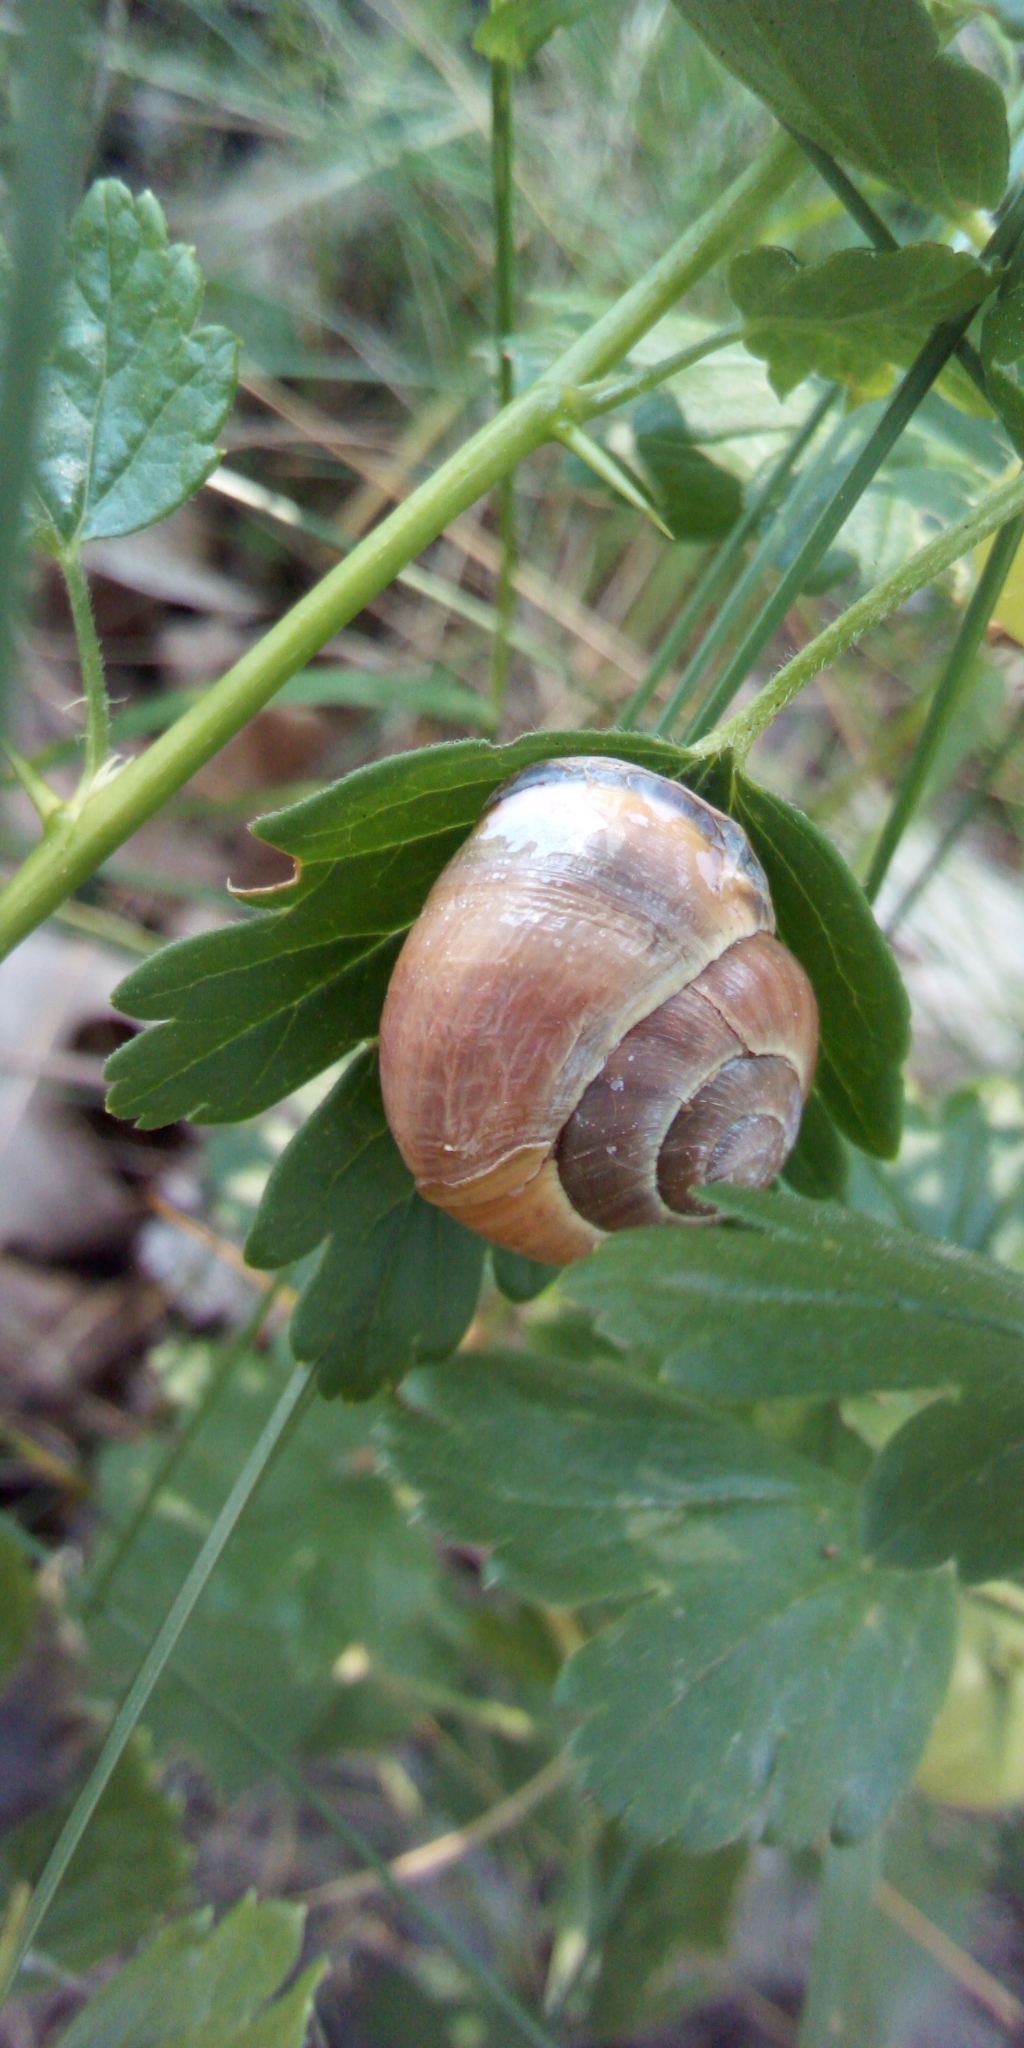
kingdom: Animalia
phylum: Mollusca
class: Gastropoda
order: Stylommatophora
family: Helicidae
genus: Cepaea
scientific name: Cepaea nemoralis
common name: Grovesnail
